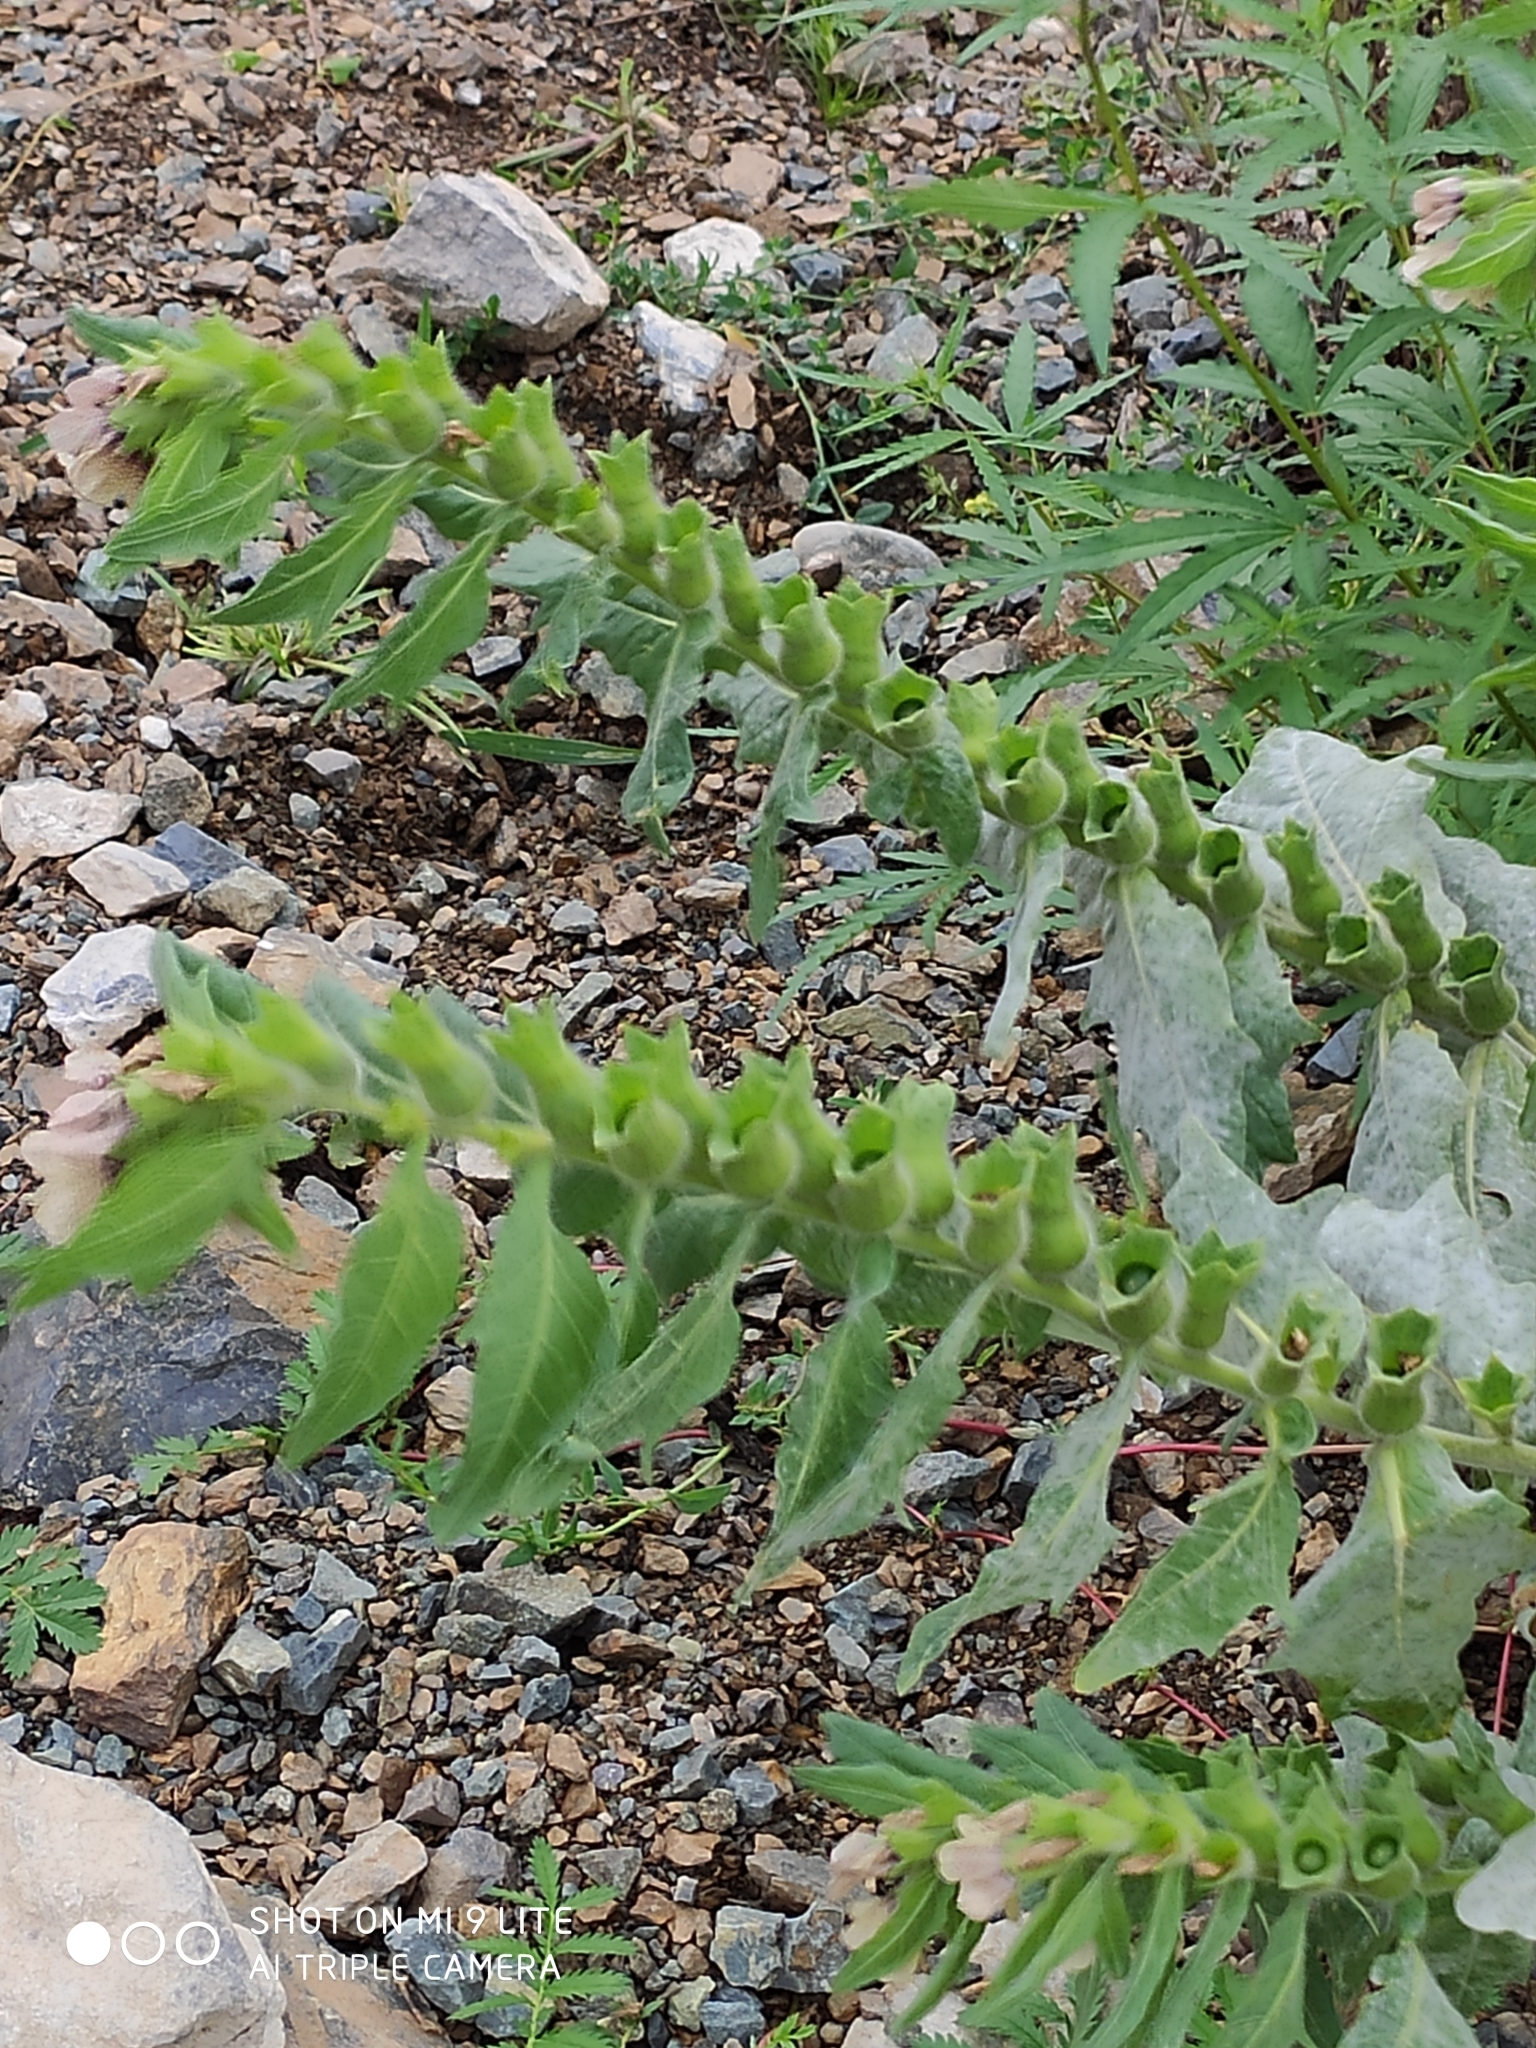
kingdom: Plantae
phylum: Tracheophyta
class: Magnoliopsida
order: Solanales
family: Solanaceae
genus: Hyoscyamus
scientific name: Hyoscyamus niger
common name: Henbane
